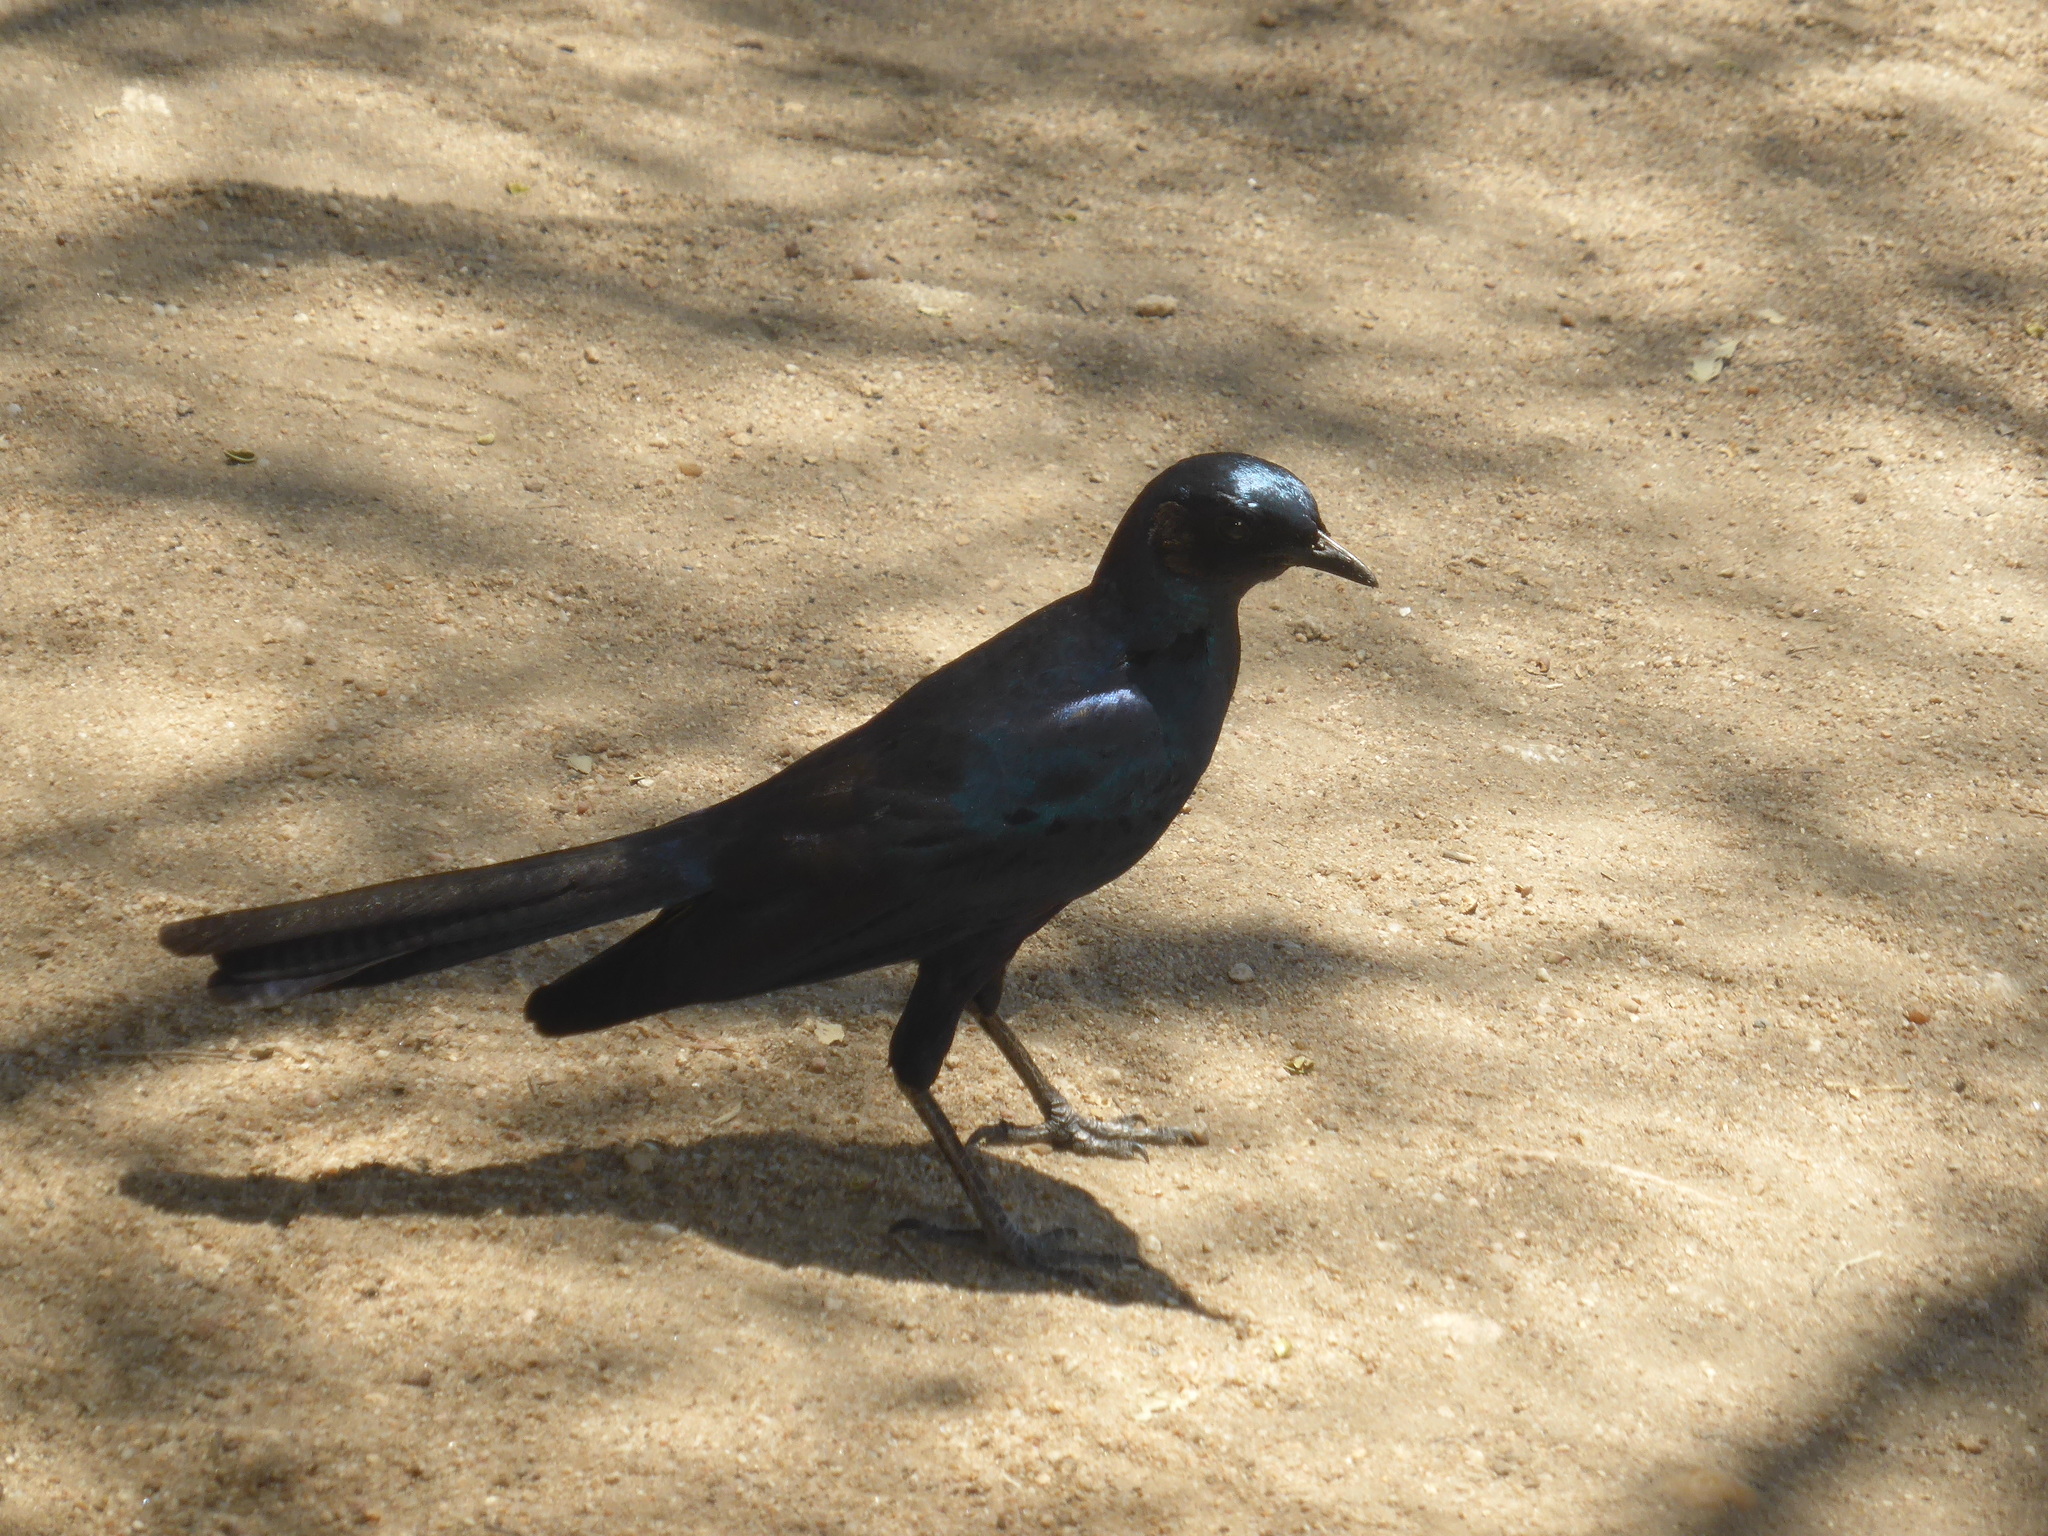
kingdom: Animalia
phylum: Chordata
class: Aves
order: Passeriformes
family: Sturnidae
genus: Lamprotornis
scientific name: Lamprotornis australis
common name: Burchell's starling
